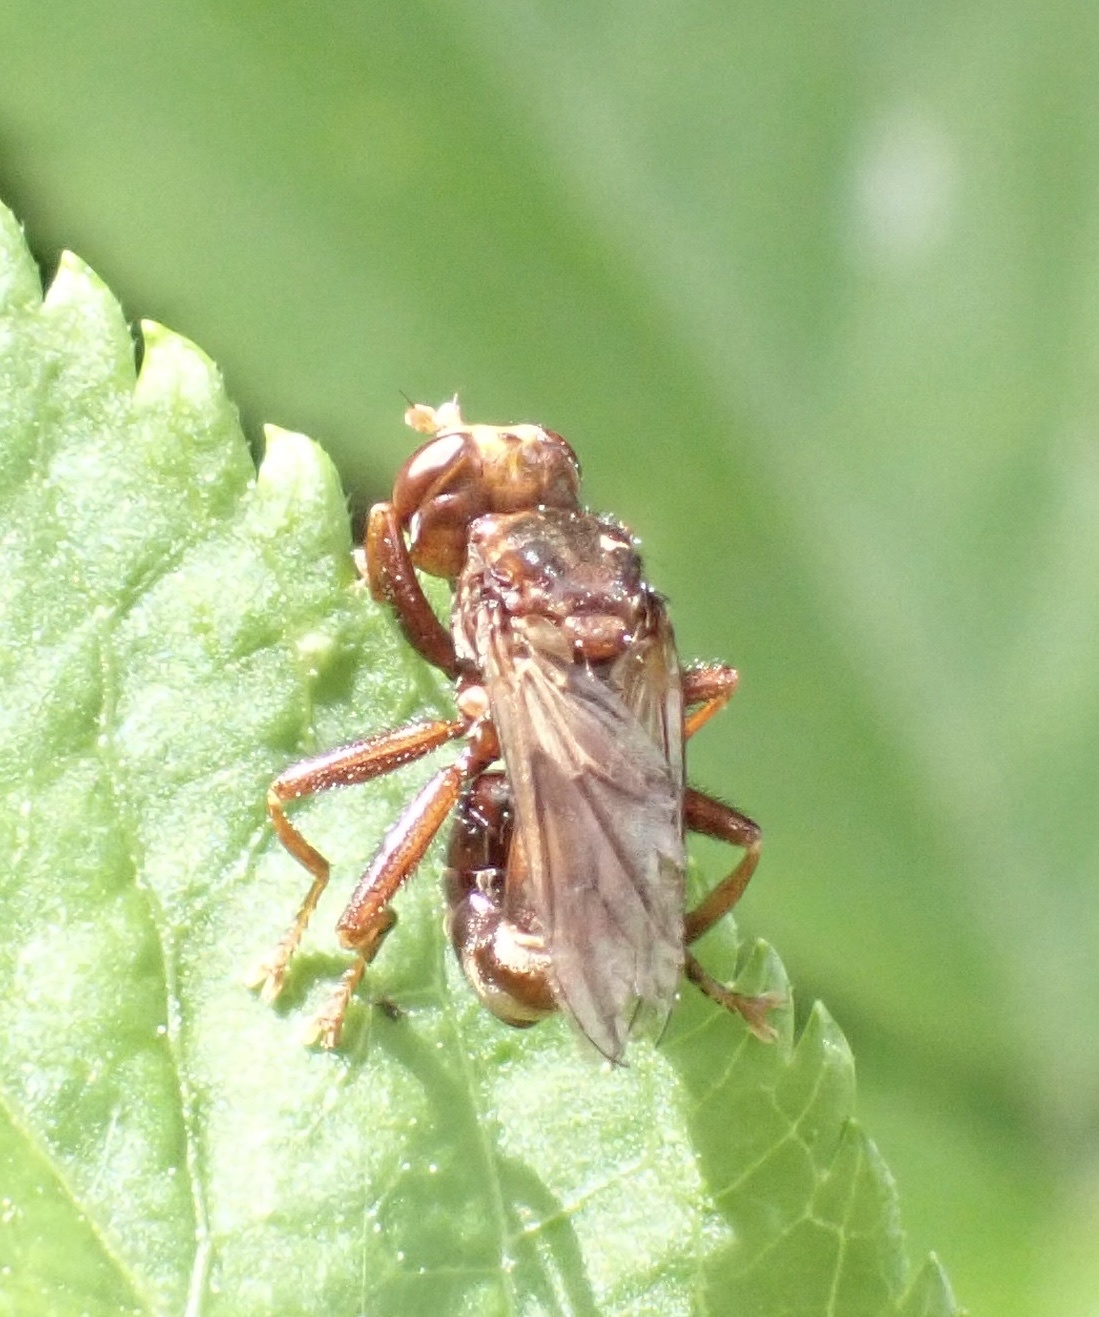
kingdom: Animalia
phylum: Arthropoda
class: Insecta
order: Diptera
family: Conopidae
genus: Sicus
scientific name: Sicus ferrugineus
